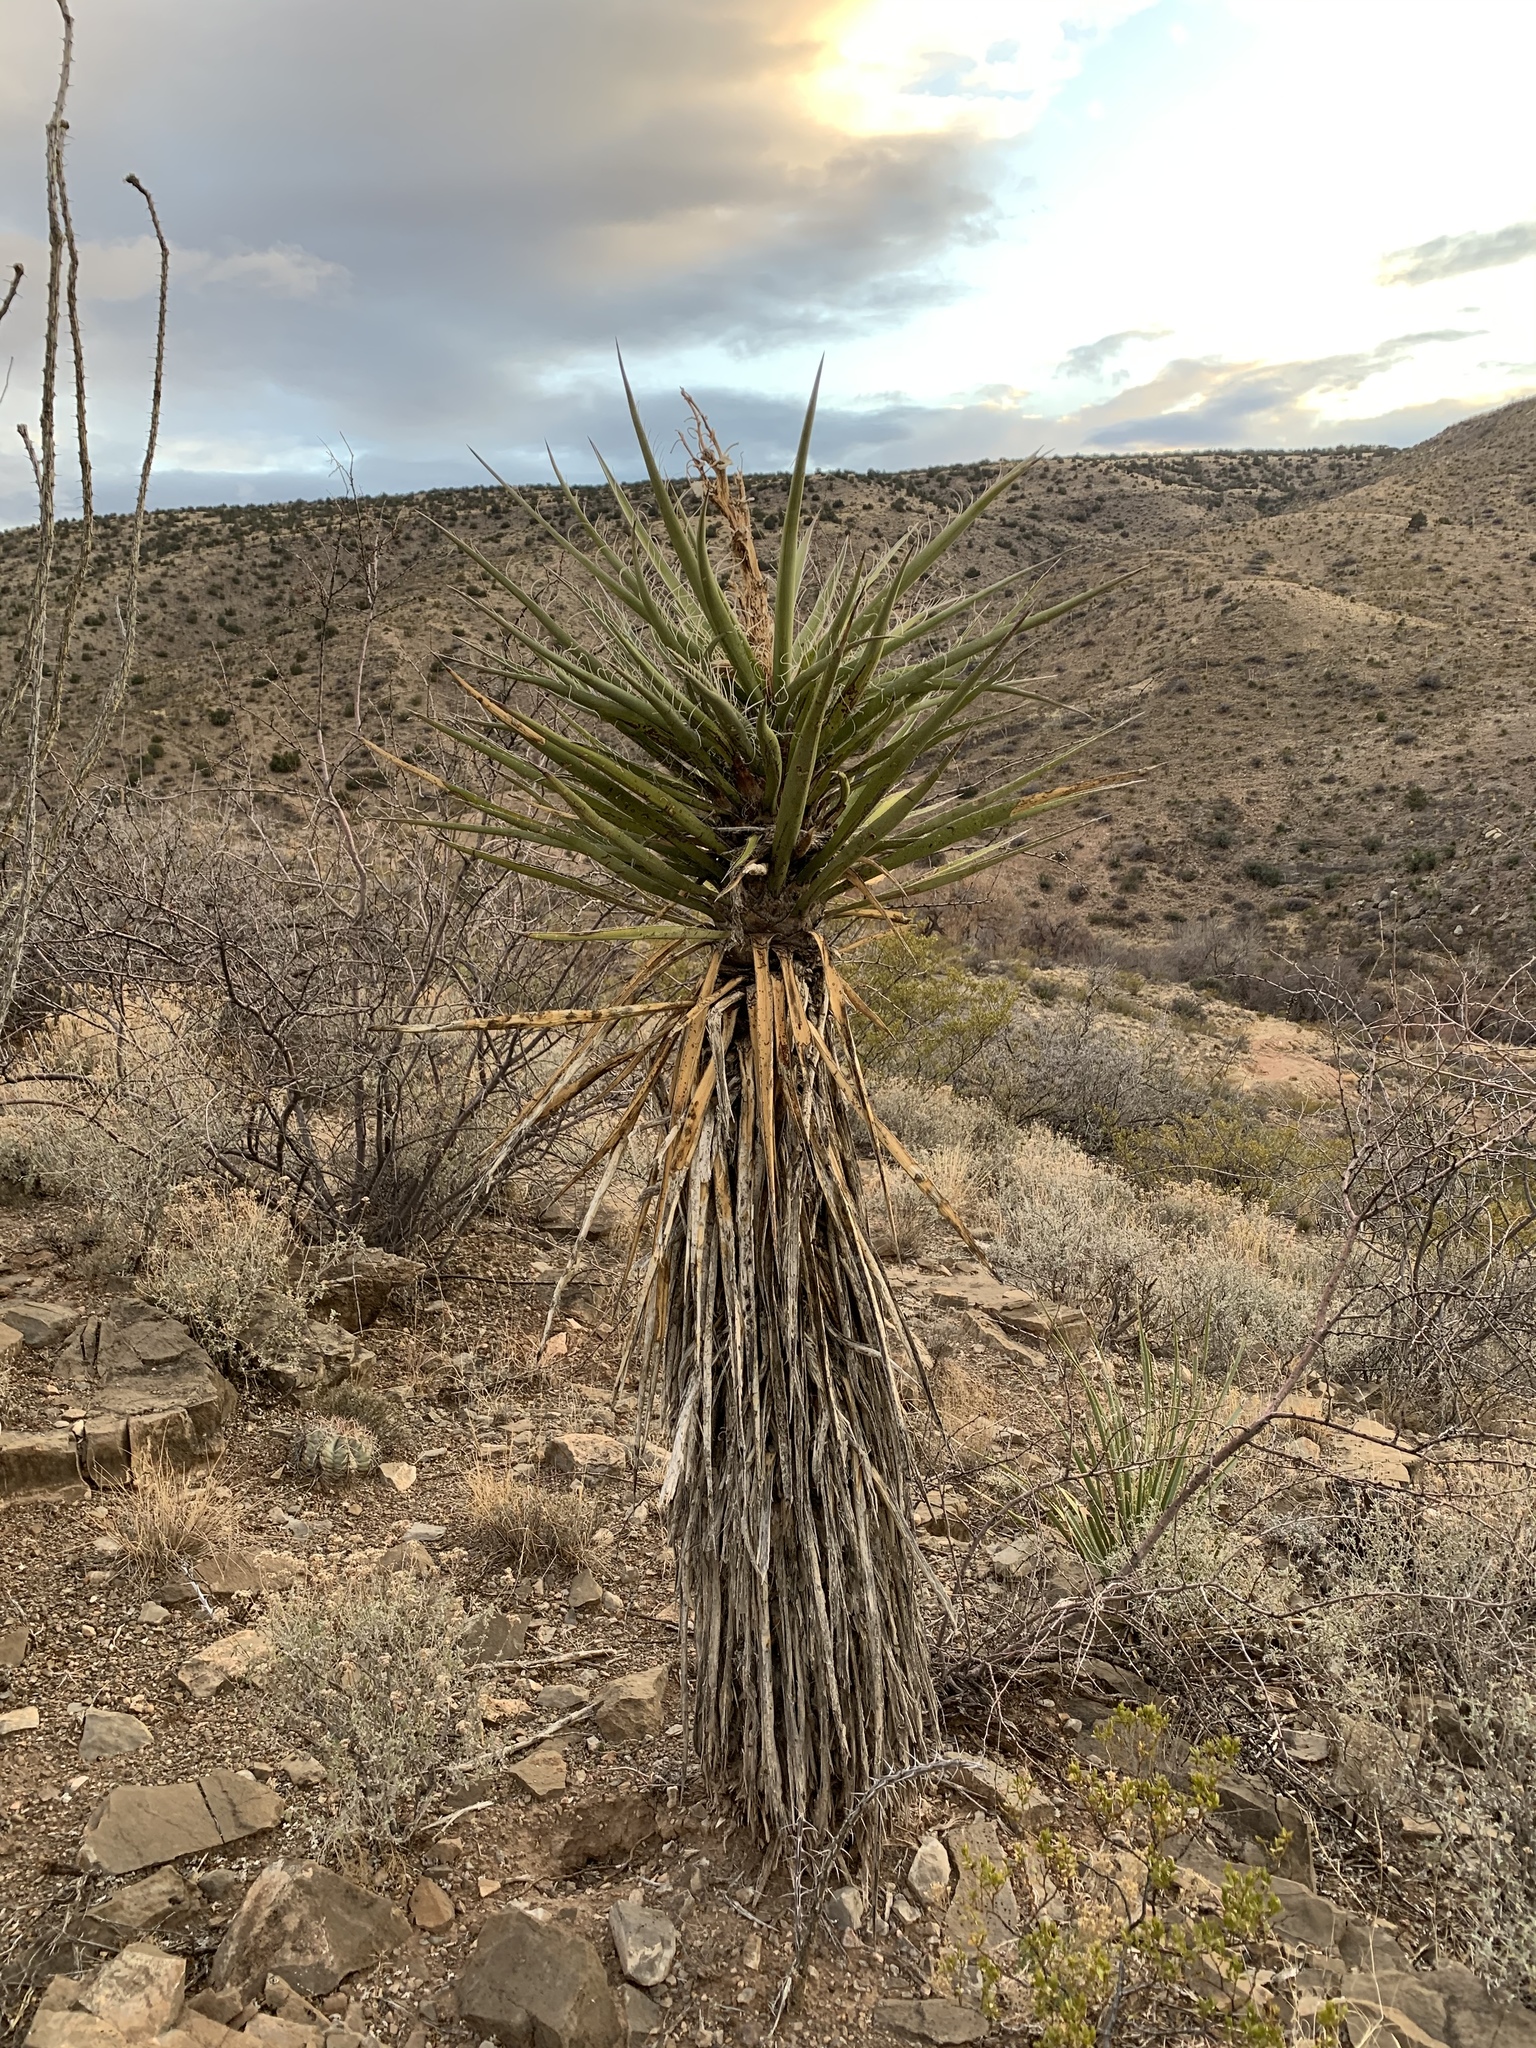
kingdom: Plantae
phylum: Tracheophyta
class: Liliopsida
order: Asparagales
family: Asparagaceae
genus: Yucca
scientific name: Yucca treculiana
